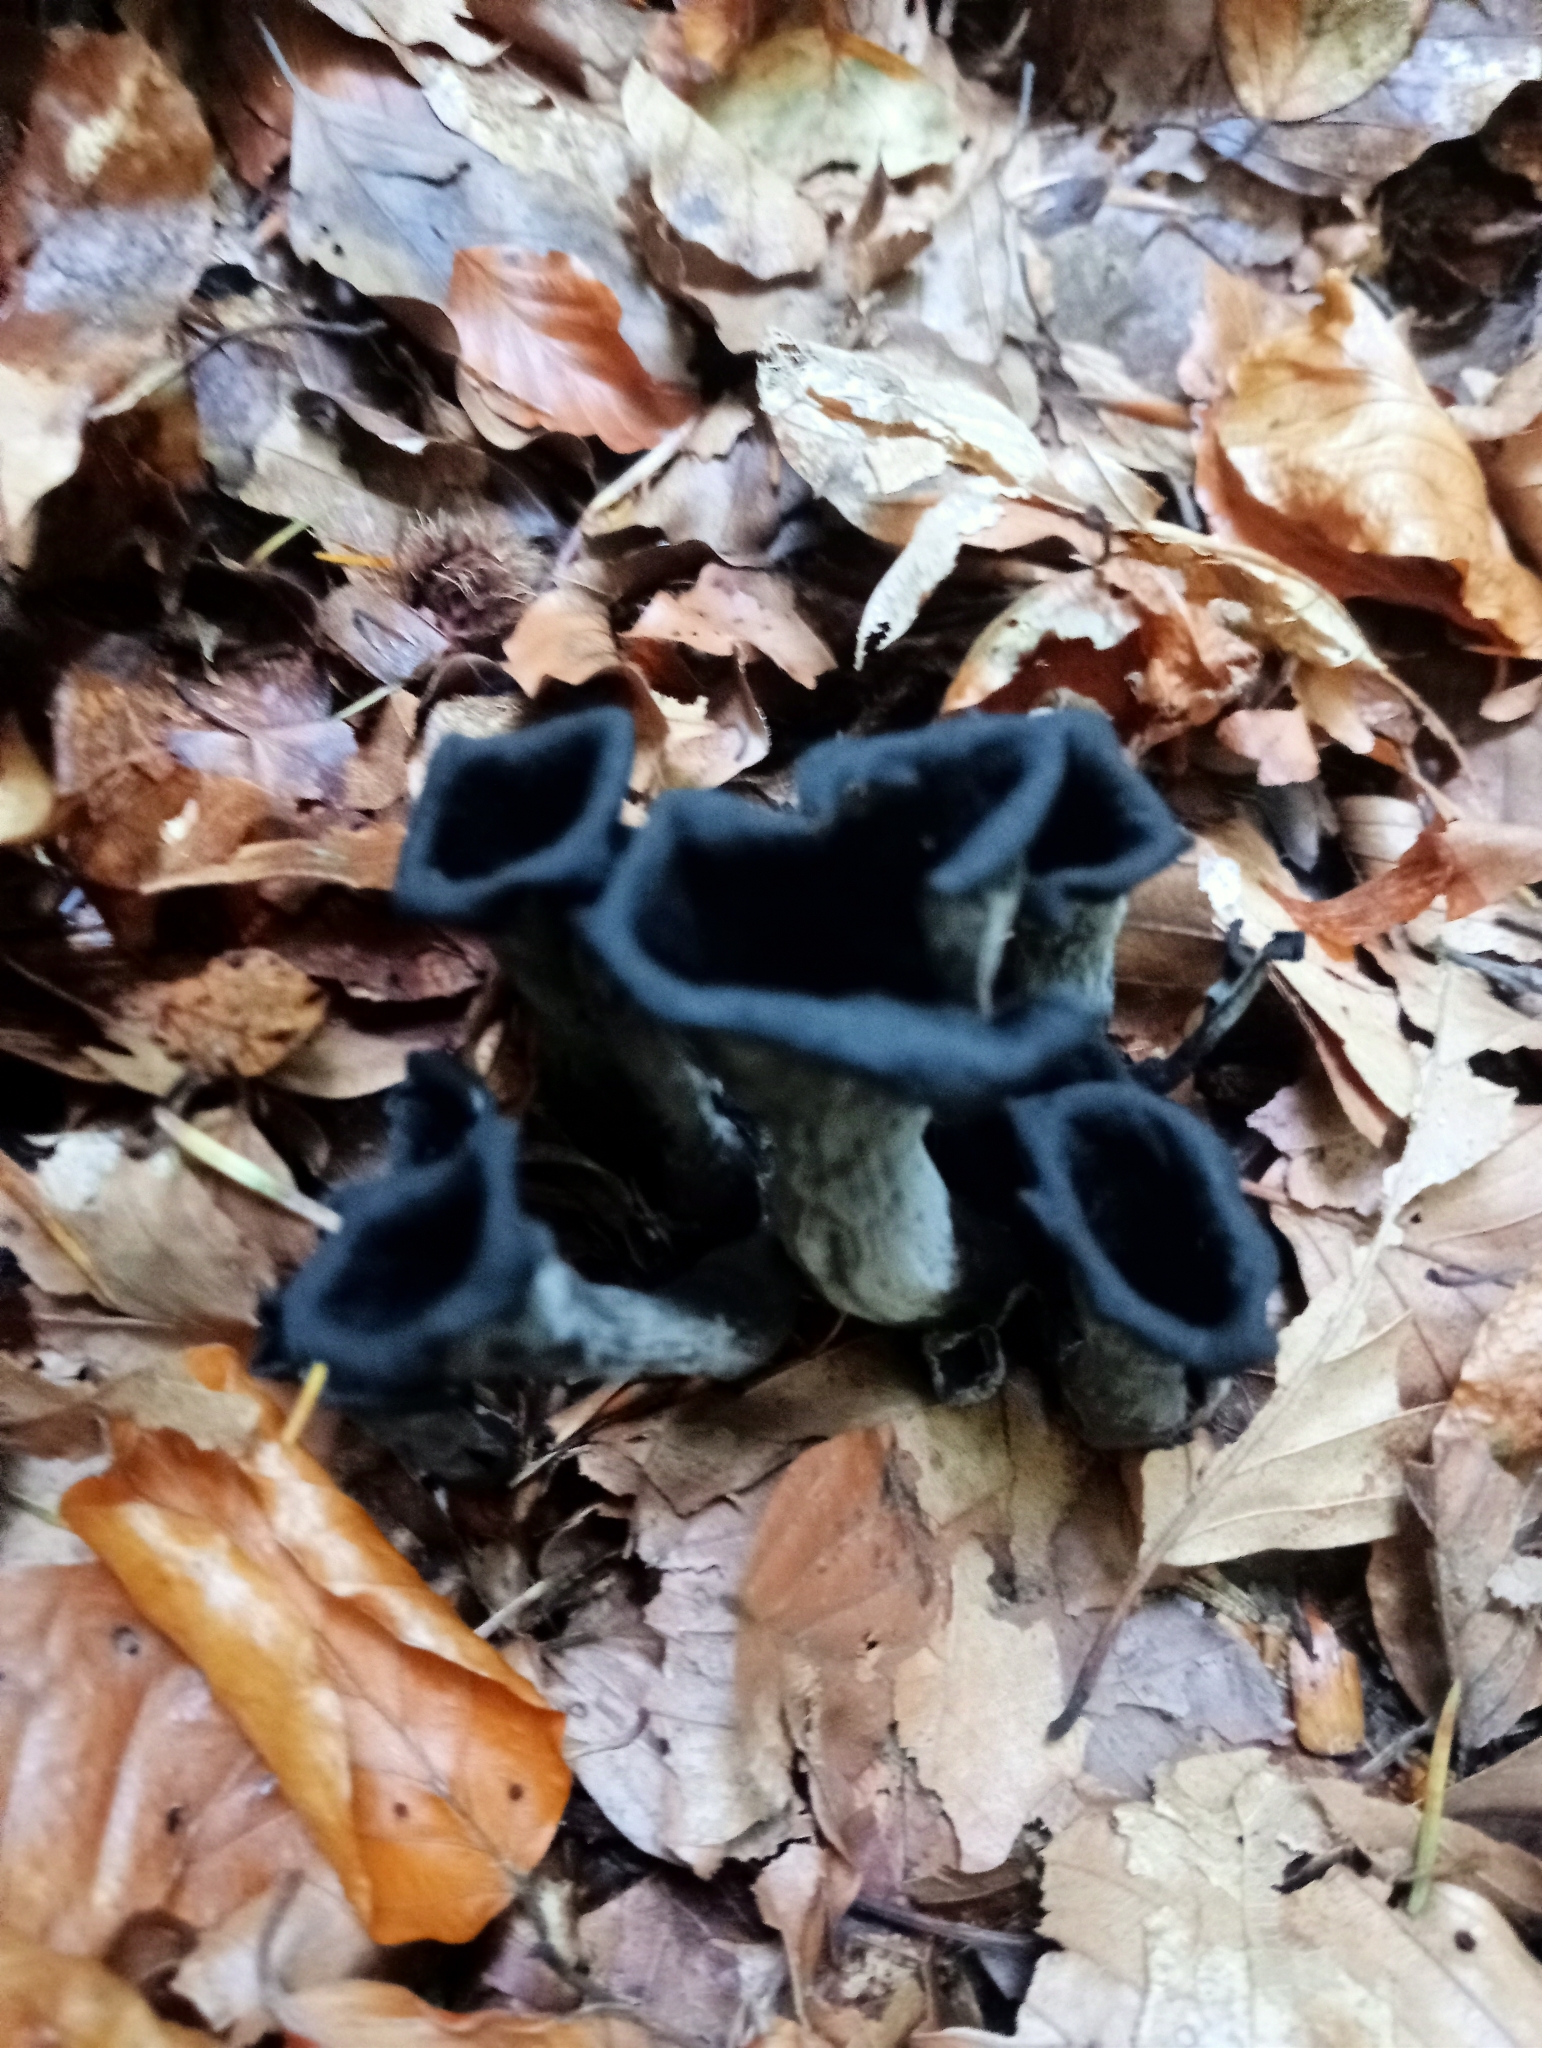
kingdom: Fungi
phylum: Basidiomycota
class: Agaricomycetes
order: Cantharellales
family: Hydnaceae
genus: Craterellus
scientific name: Craterellus cornucopioides
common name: Horn of plenty
